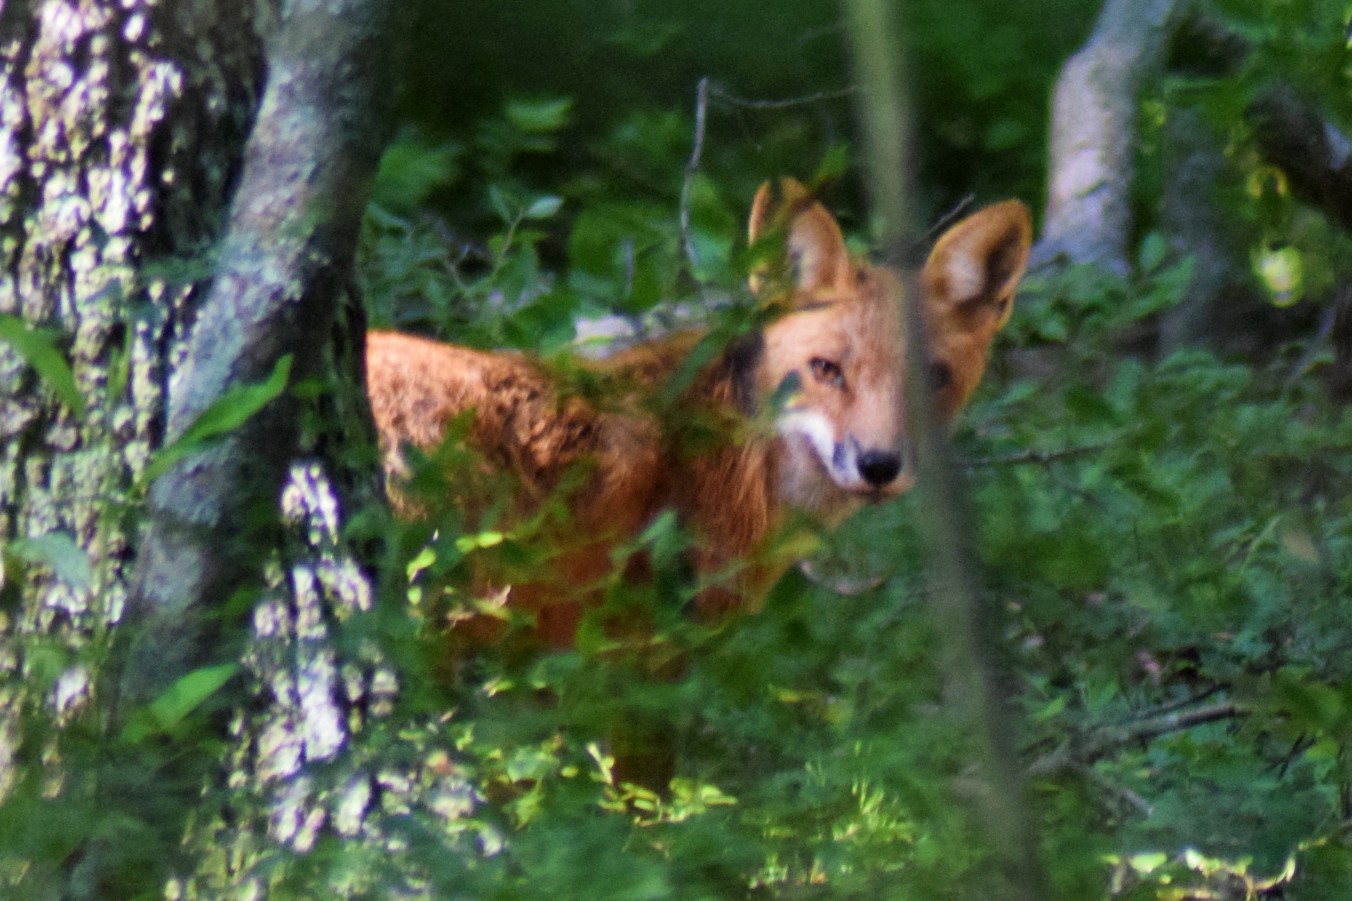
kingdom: Animalia
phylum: Chordata
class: Mammalia
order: Carnivora
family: Canidae
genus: Vulpes
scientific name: Vulpes vulpes
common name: Red fox
